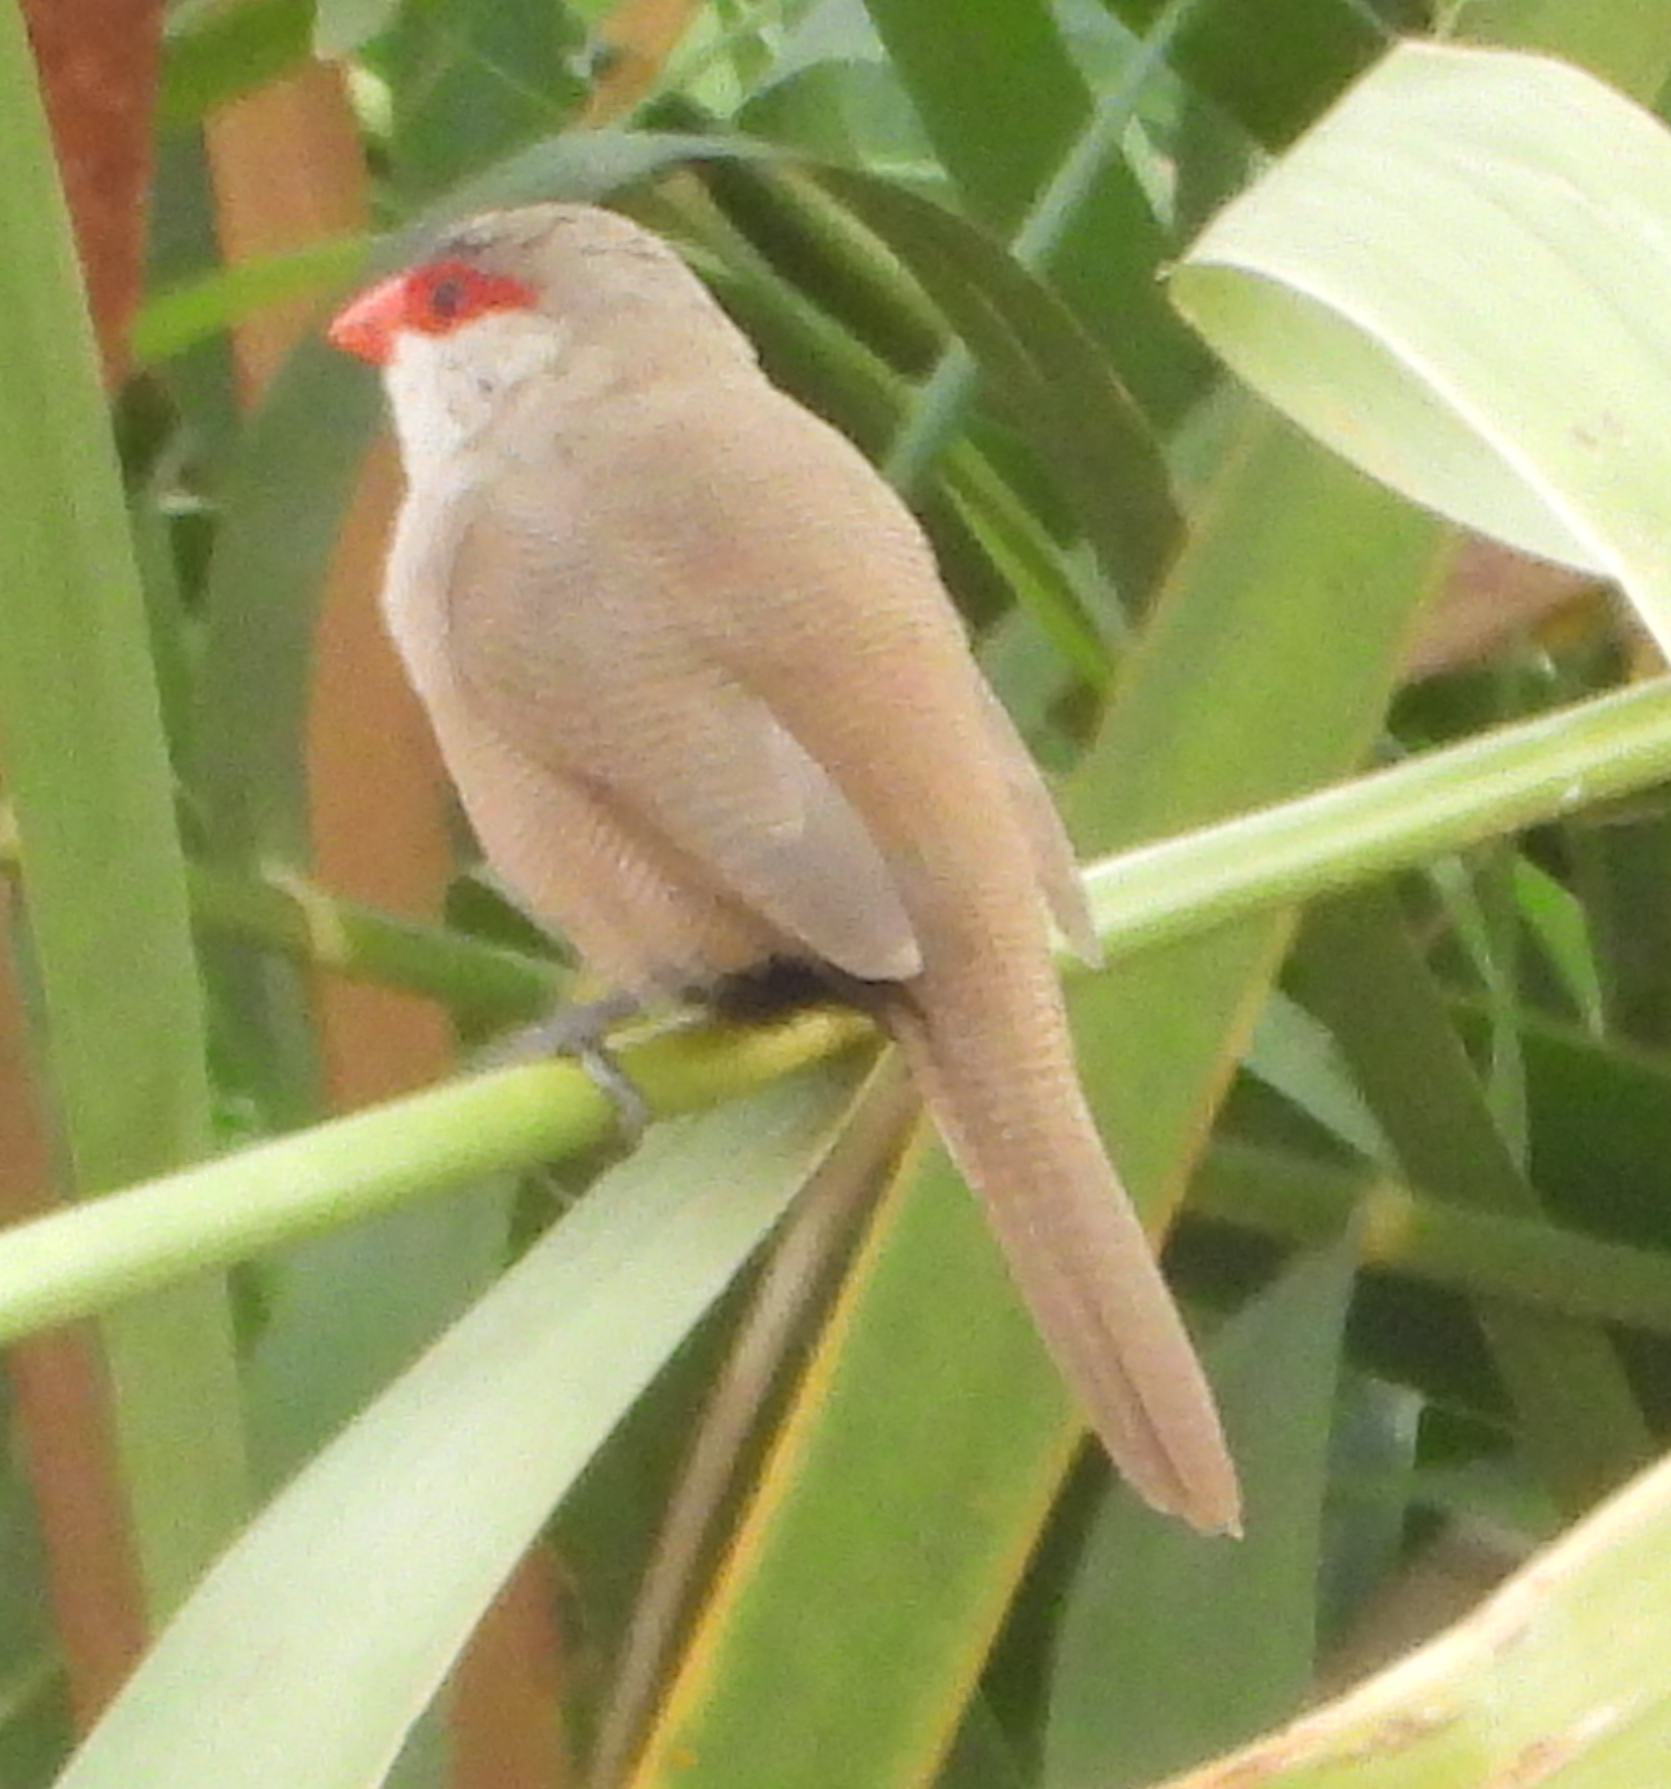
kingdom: Animalia
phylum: Chordata
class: Aves
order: Passeriformes
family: Estrildidae
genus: Estrilda
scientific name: Estrilda astrild
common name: Common waxbill
